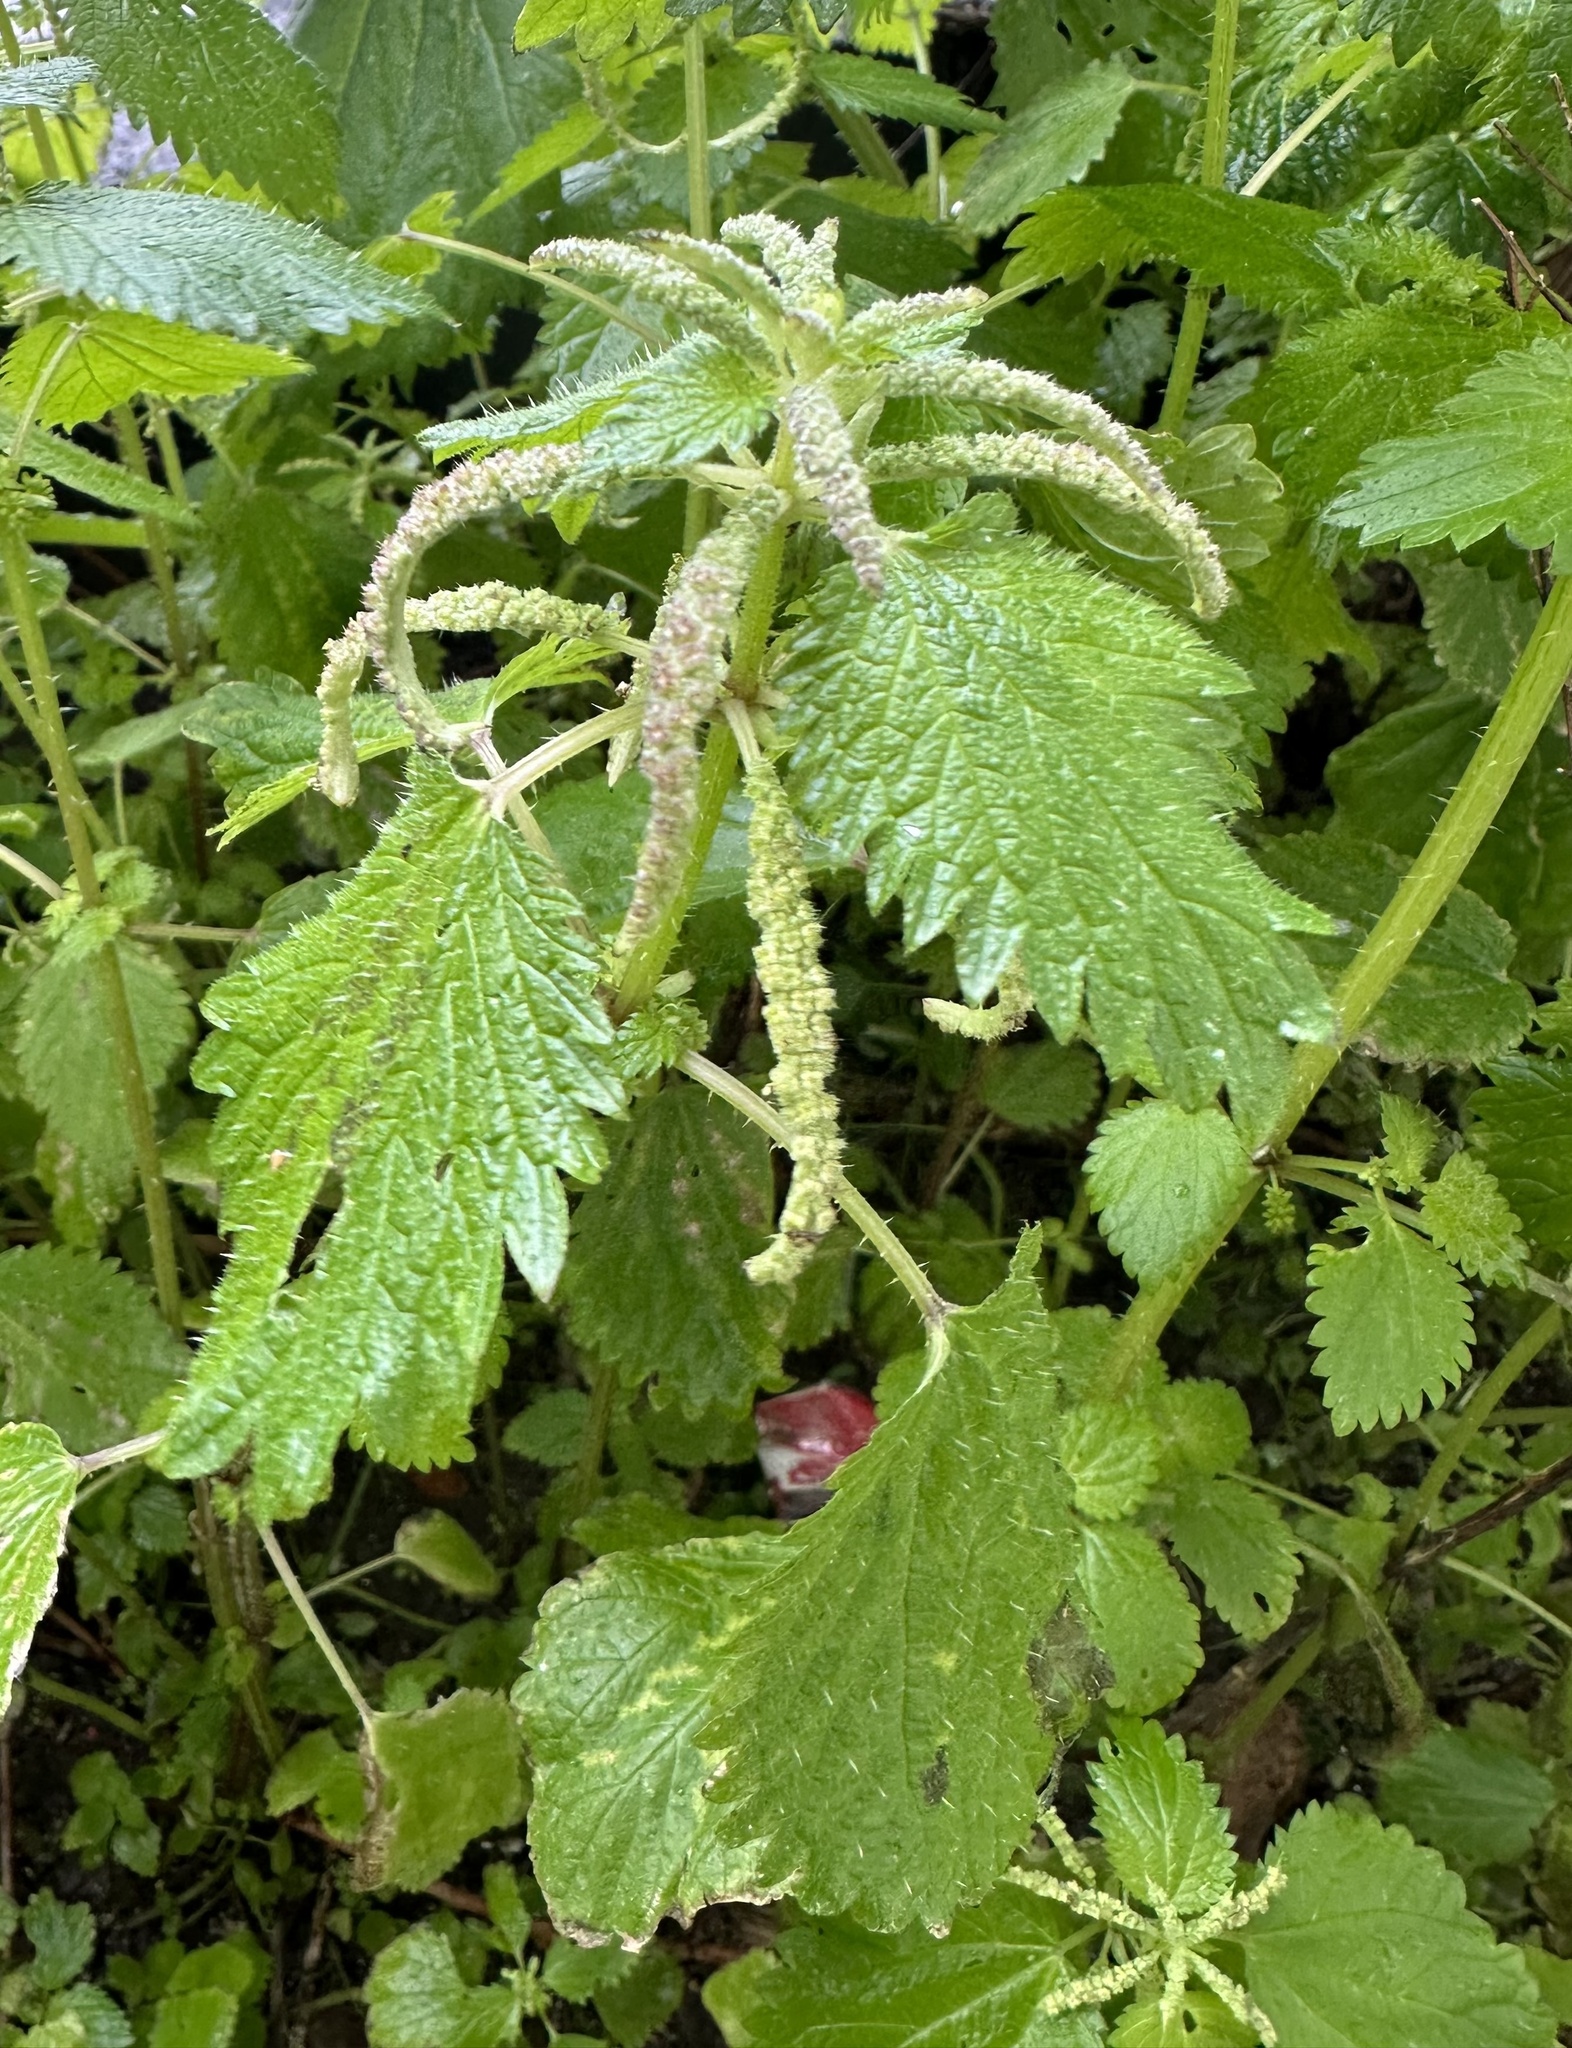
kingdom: Plantae
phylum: Tracheophyta
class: Magnoliopsida
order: Rosales
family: Urticaceae
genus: Urtica
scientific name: Urtica membranacea
